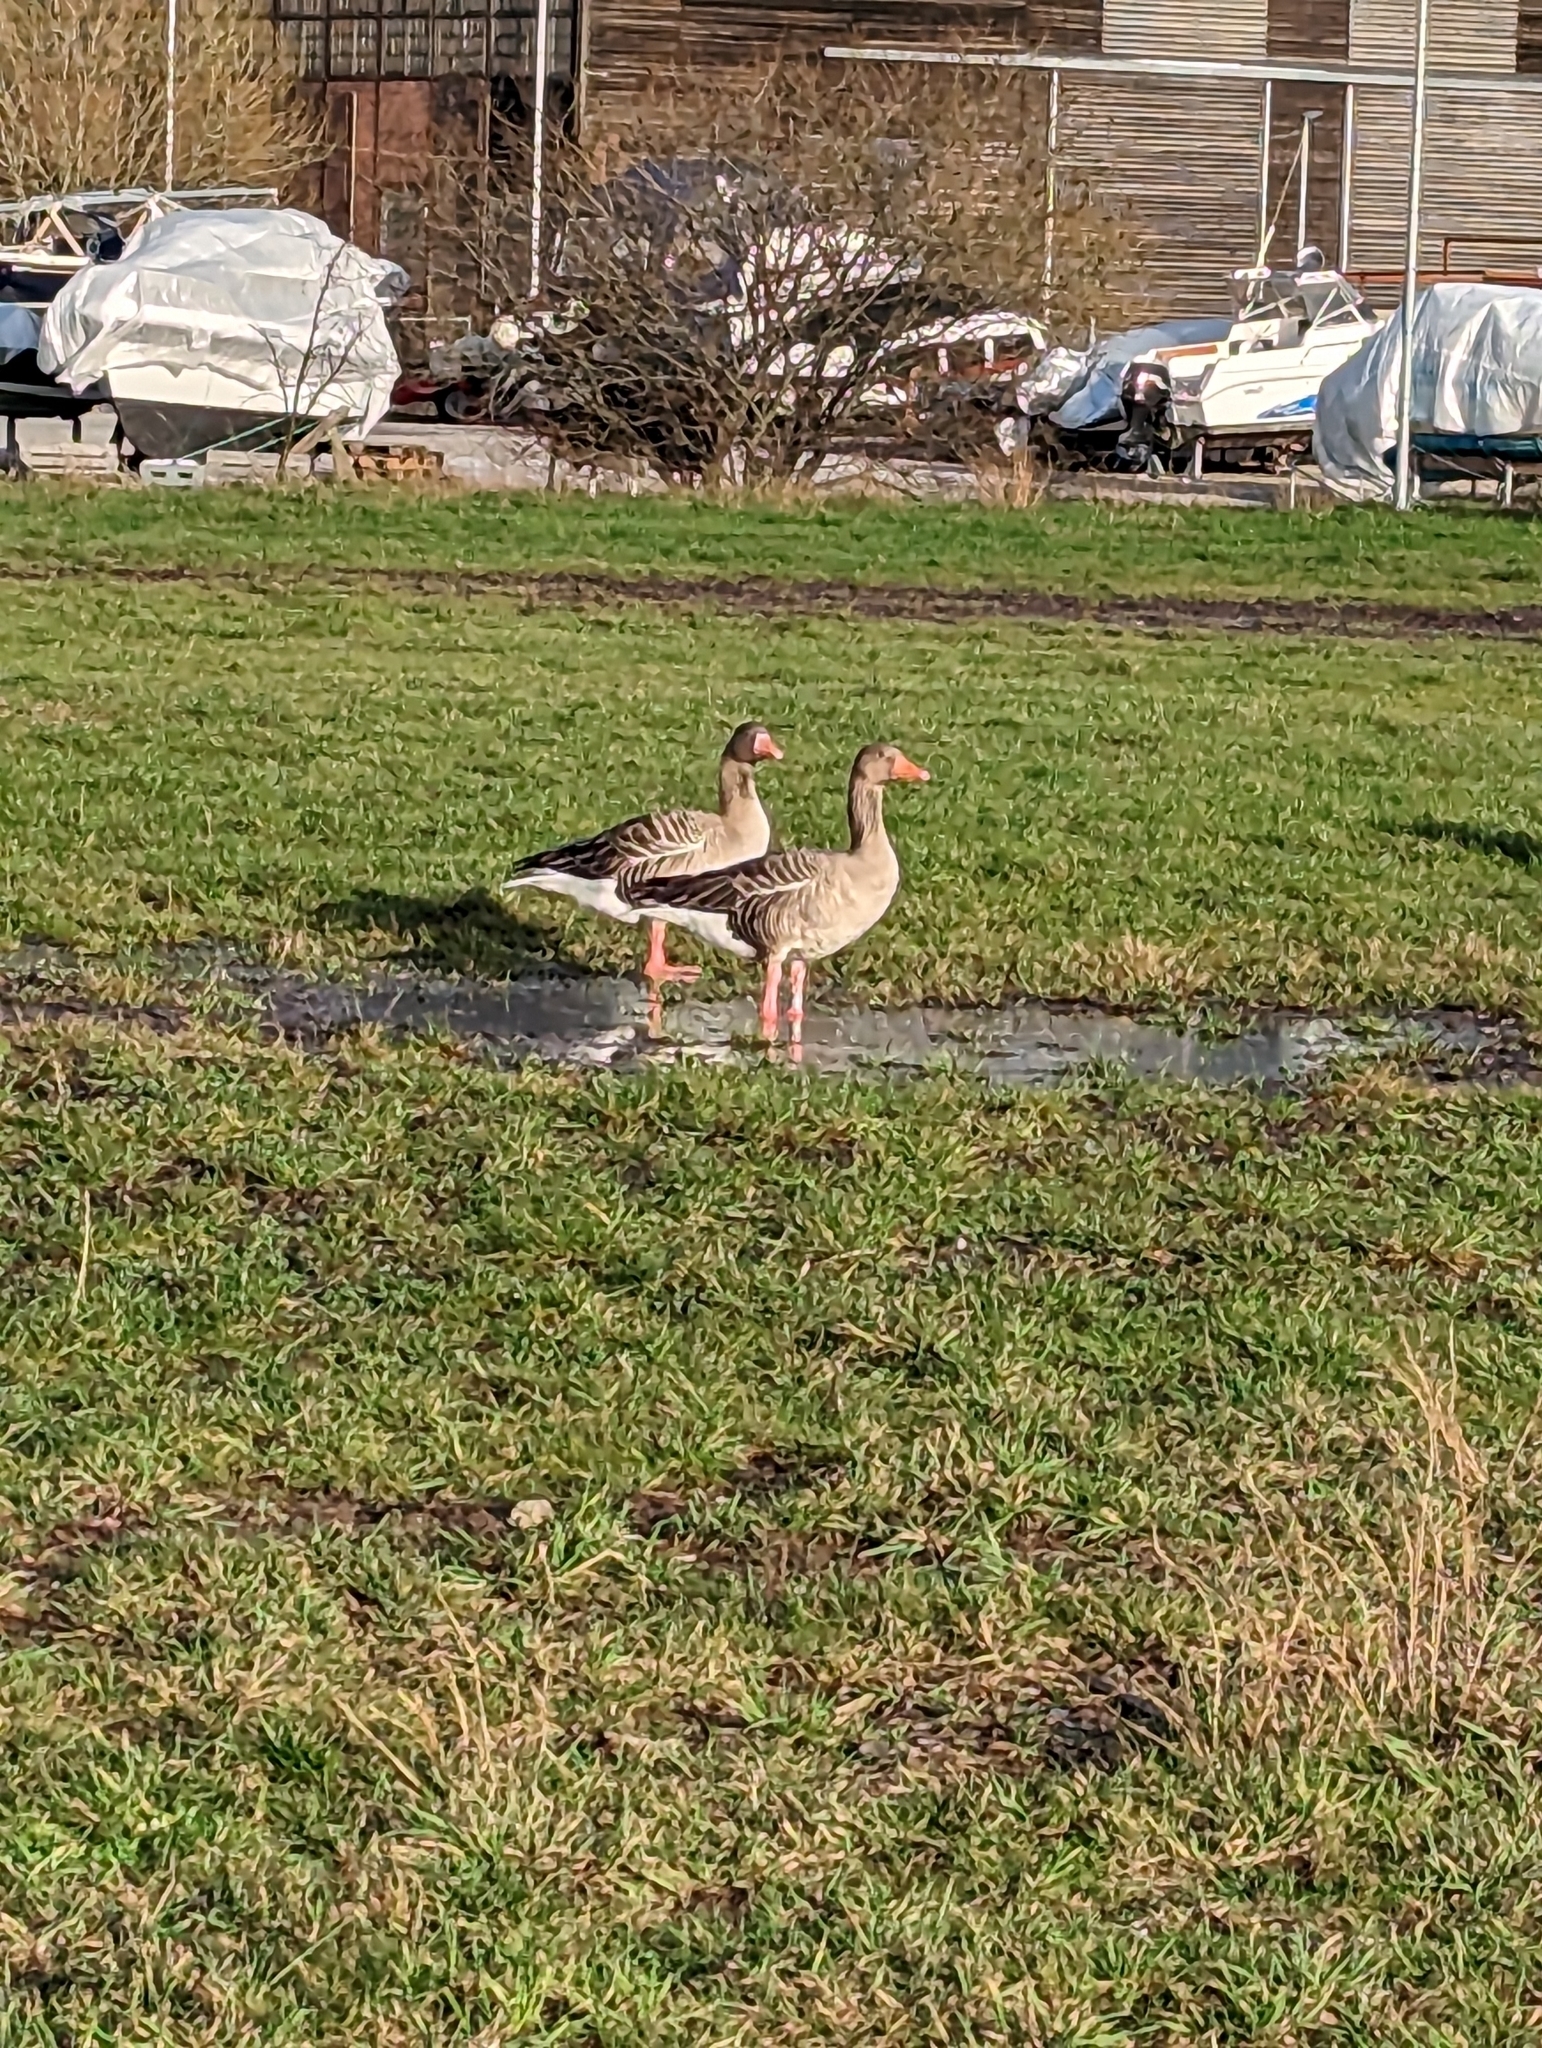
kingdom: Animalia
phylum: Chordata
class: Aves
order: Anseriformes
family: Anatidae
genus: Anser
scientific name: Anser anser
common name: Greylag goose
